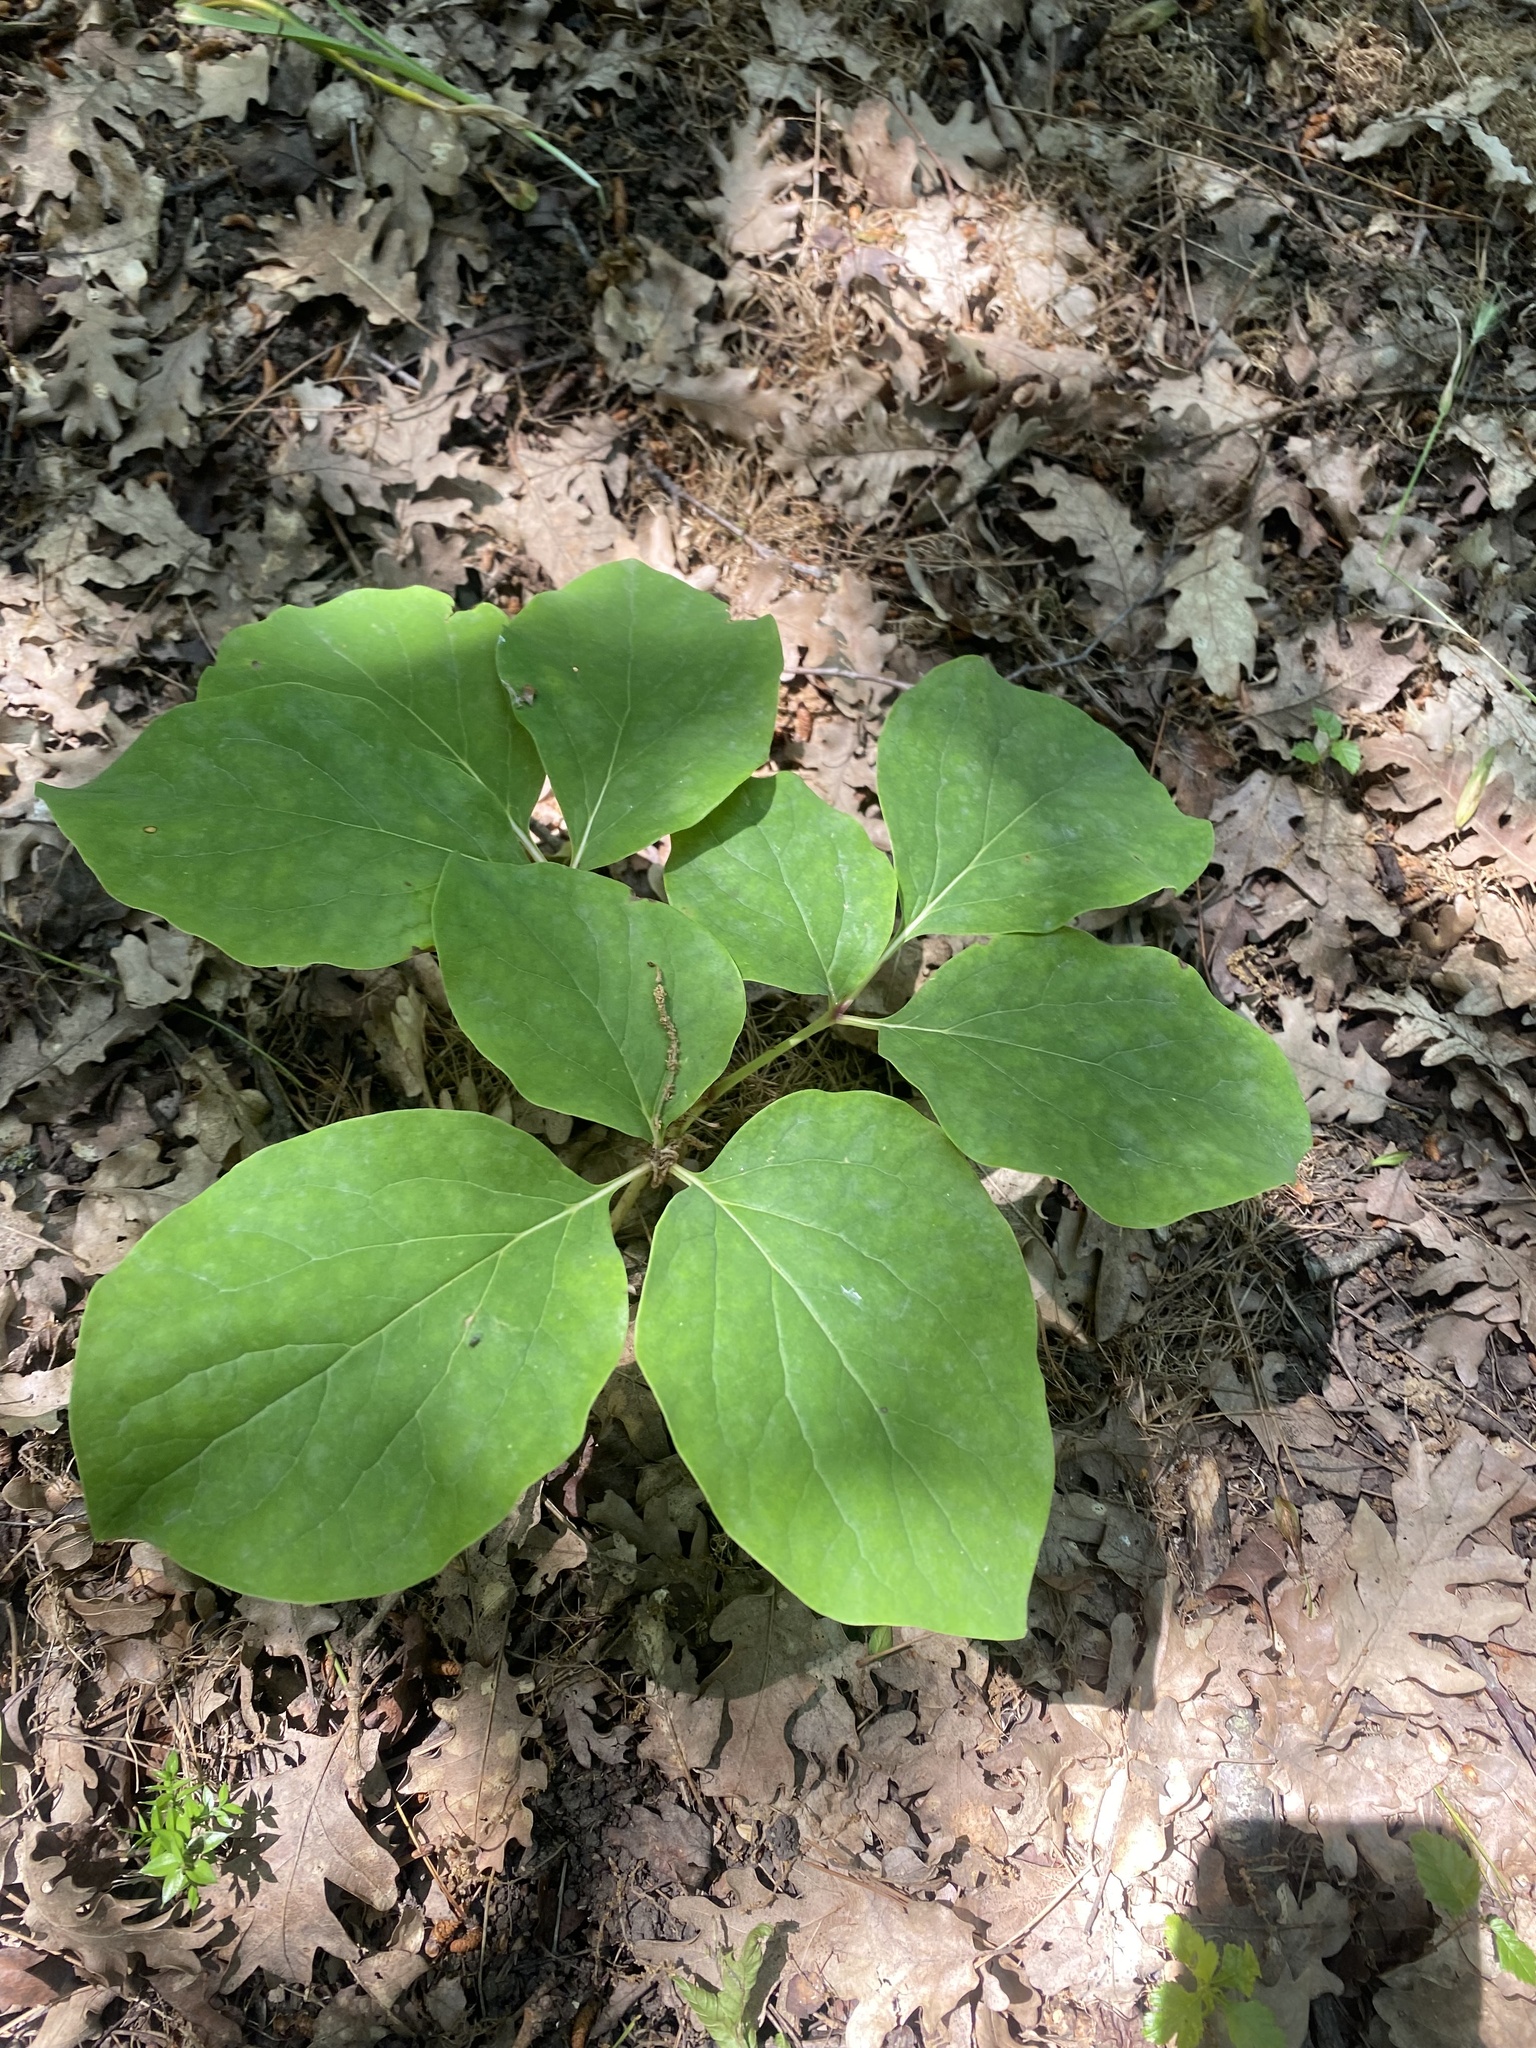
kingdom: Plantae
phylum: Tracheophyta
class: Magnoliopsida
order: Saxifragales
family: Paeoniaceae
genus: Paeonia
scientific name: Paeonia caucasica
